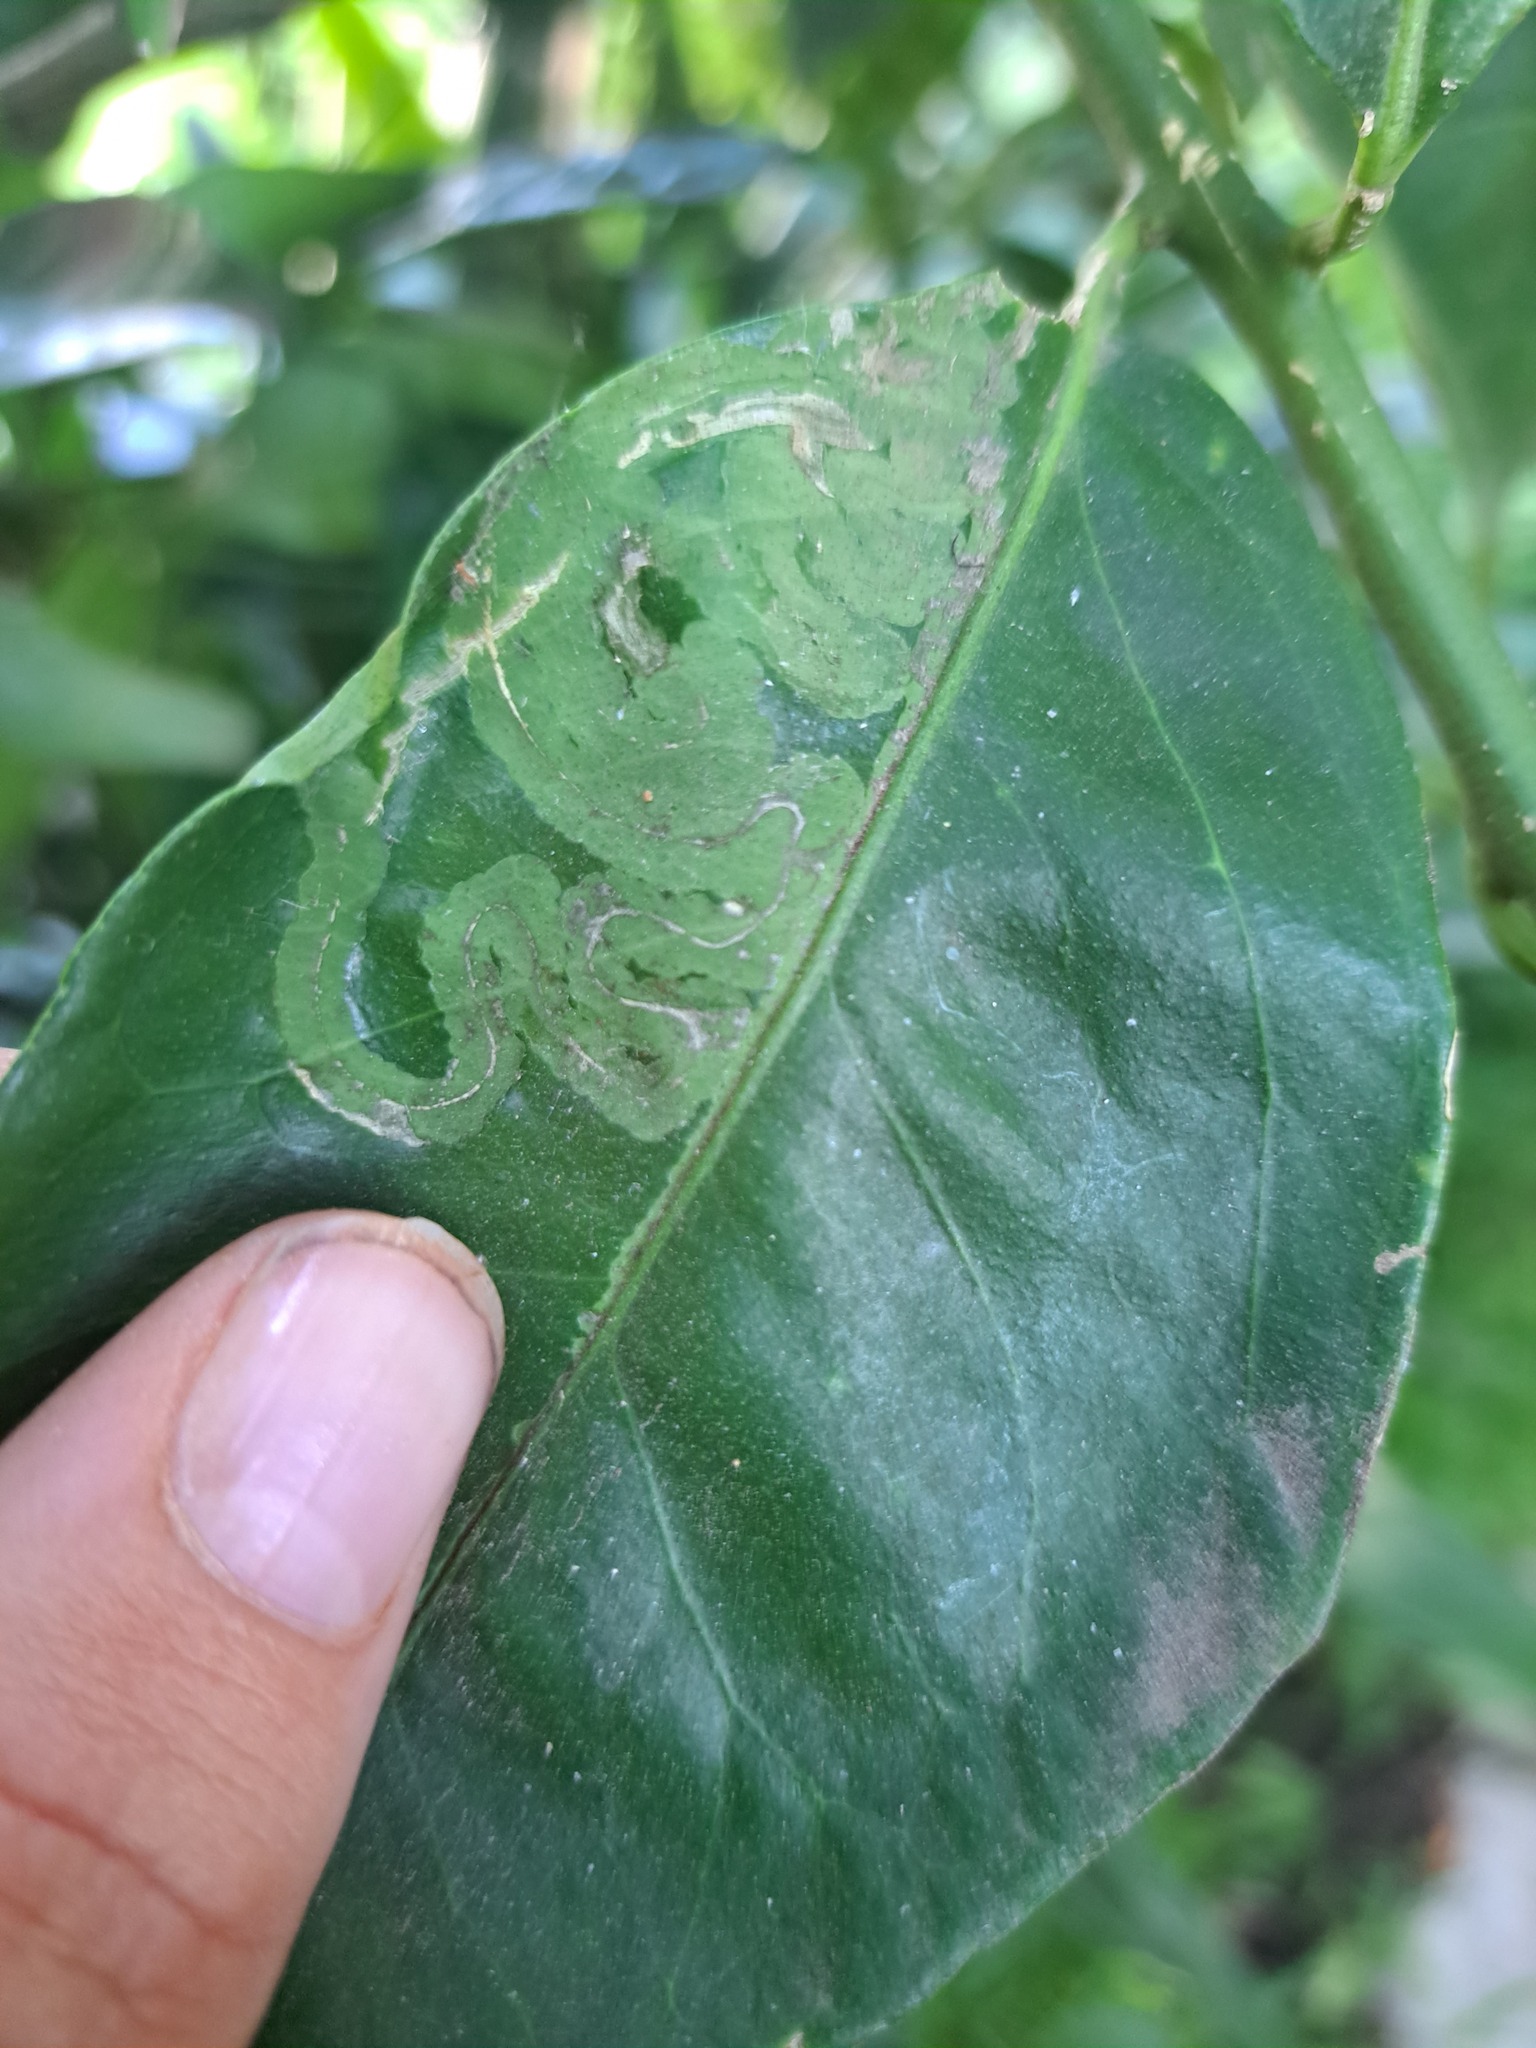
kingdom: Animalia
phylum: Arthropoda
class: Insecta
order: Lepidoptera
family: Gracillariidae
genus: Phyllocnistis
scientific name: Phyllocnistis citrella
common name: Citrus leafminer
